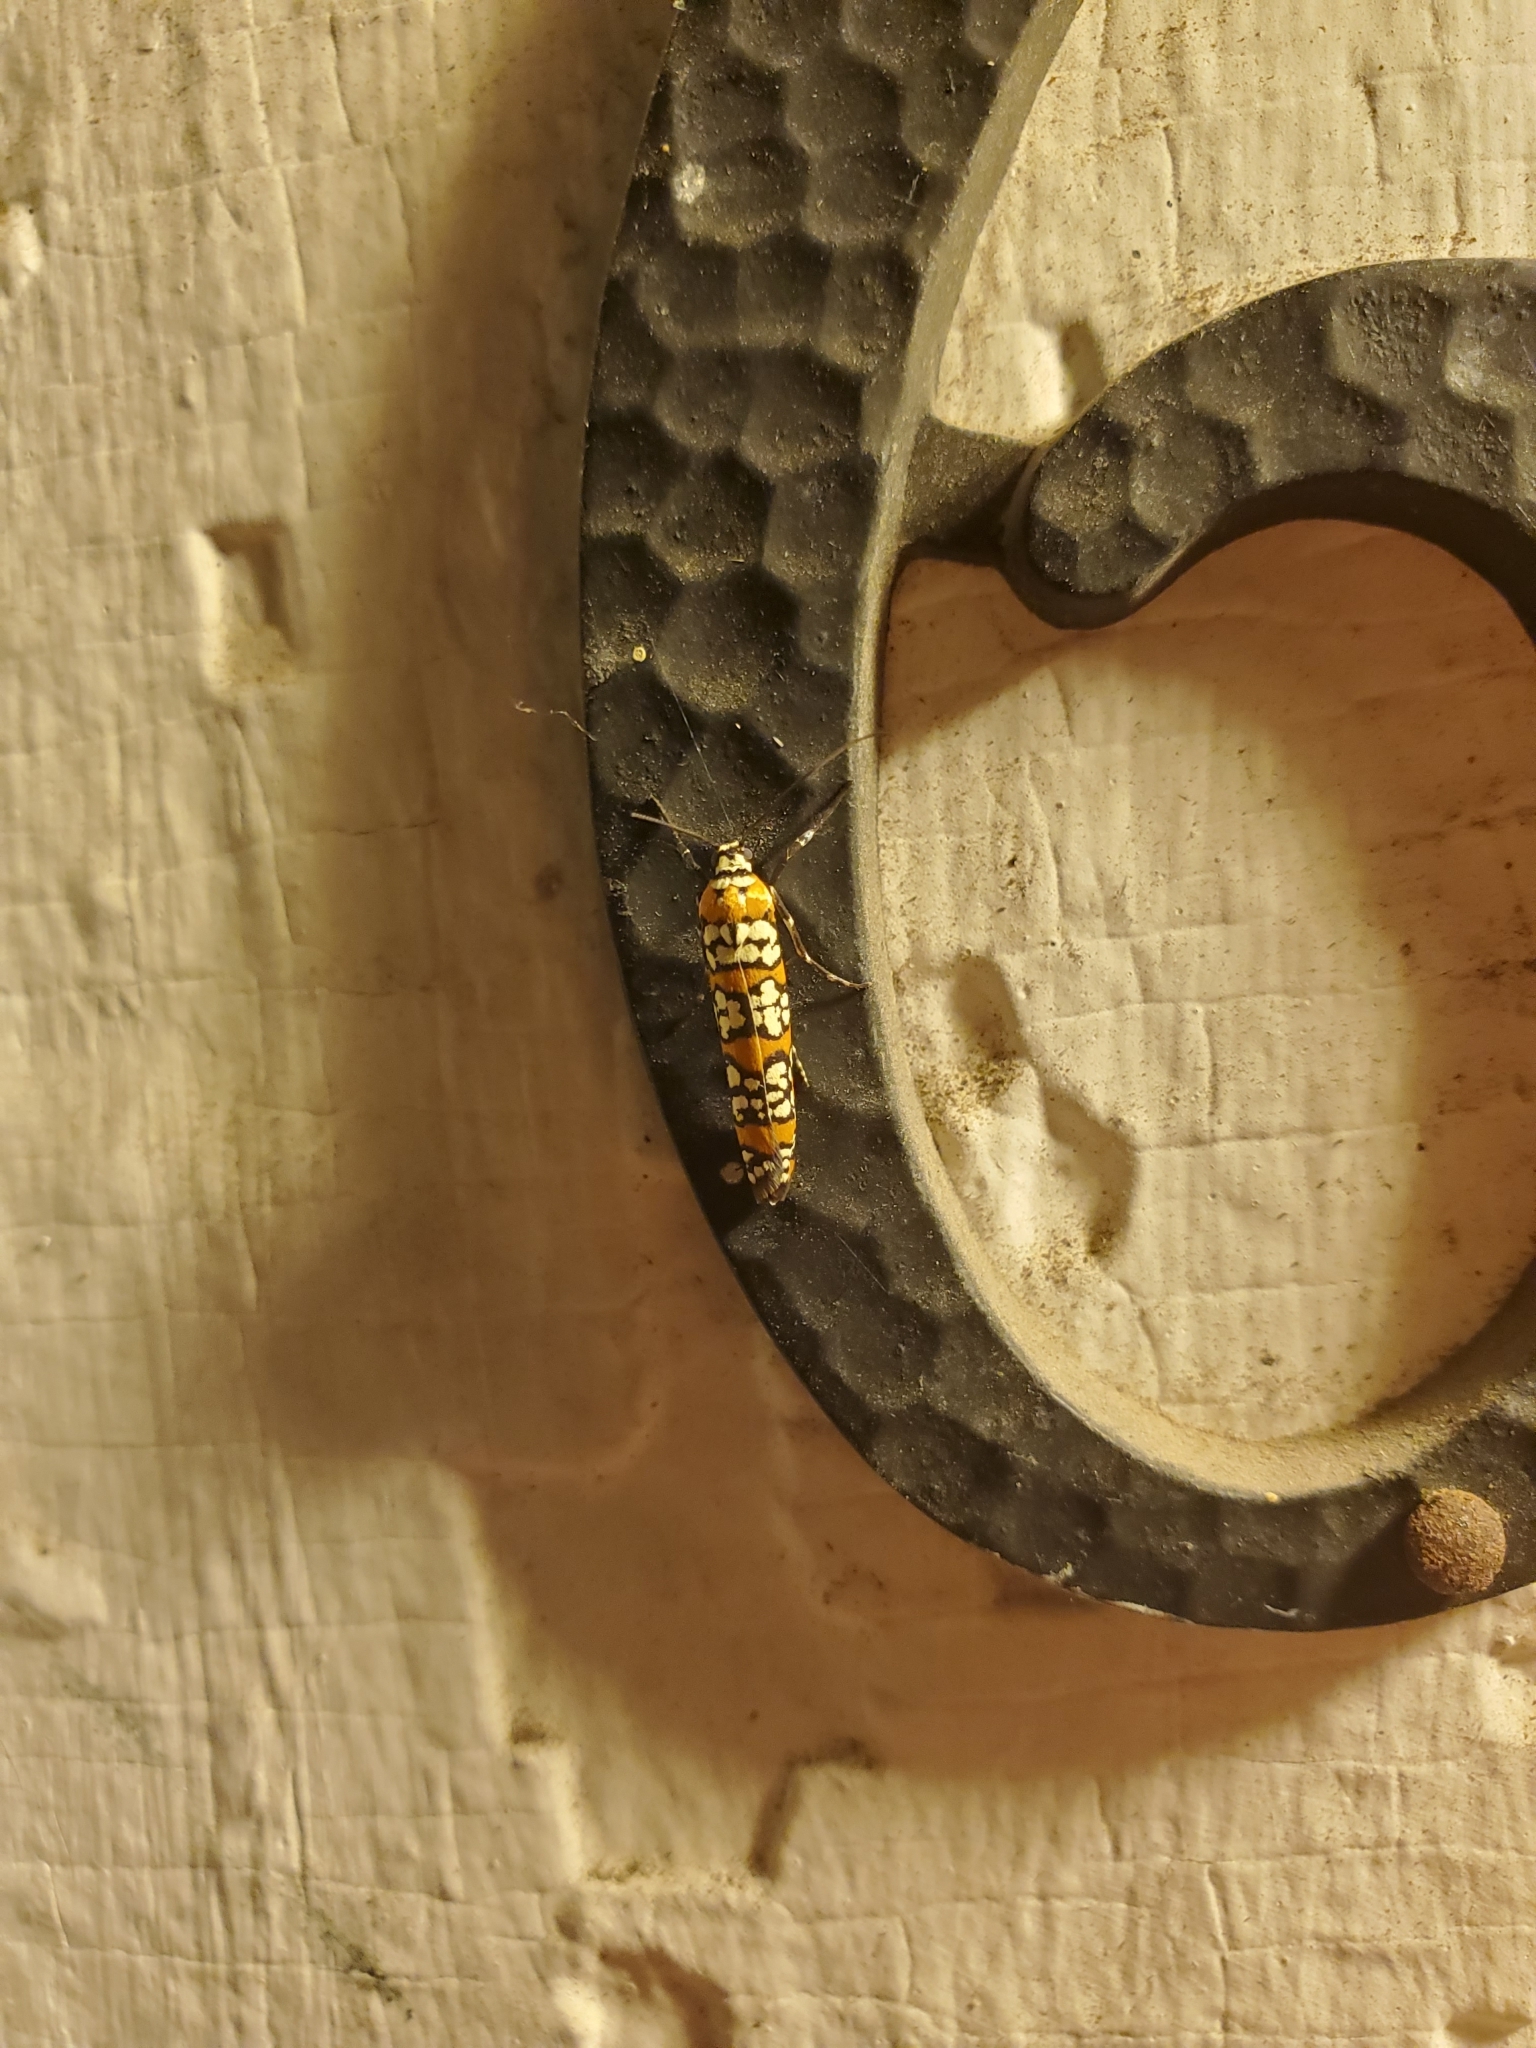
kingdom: Animalia
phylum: Arthropoda
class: Insecta
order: Lepidoptera
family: Attevidae
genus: Atteva
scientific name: Atteva punctella
